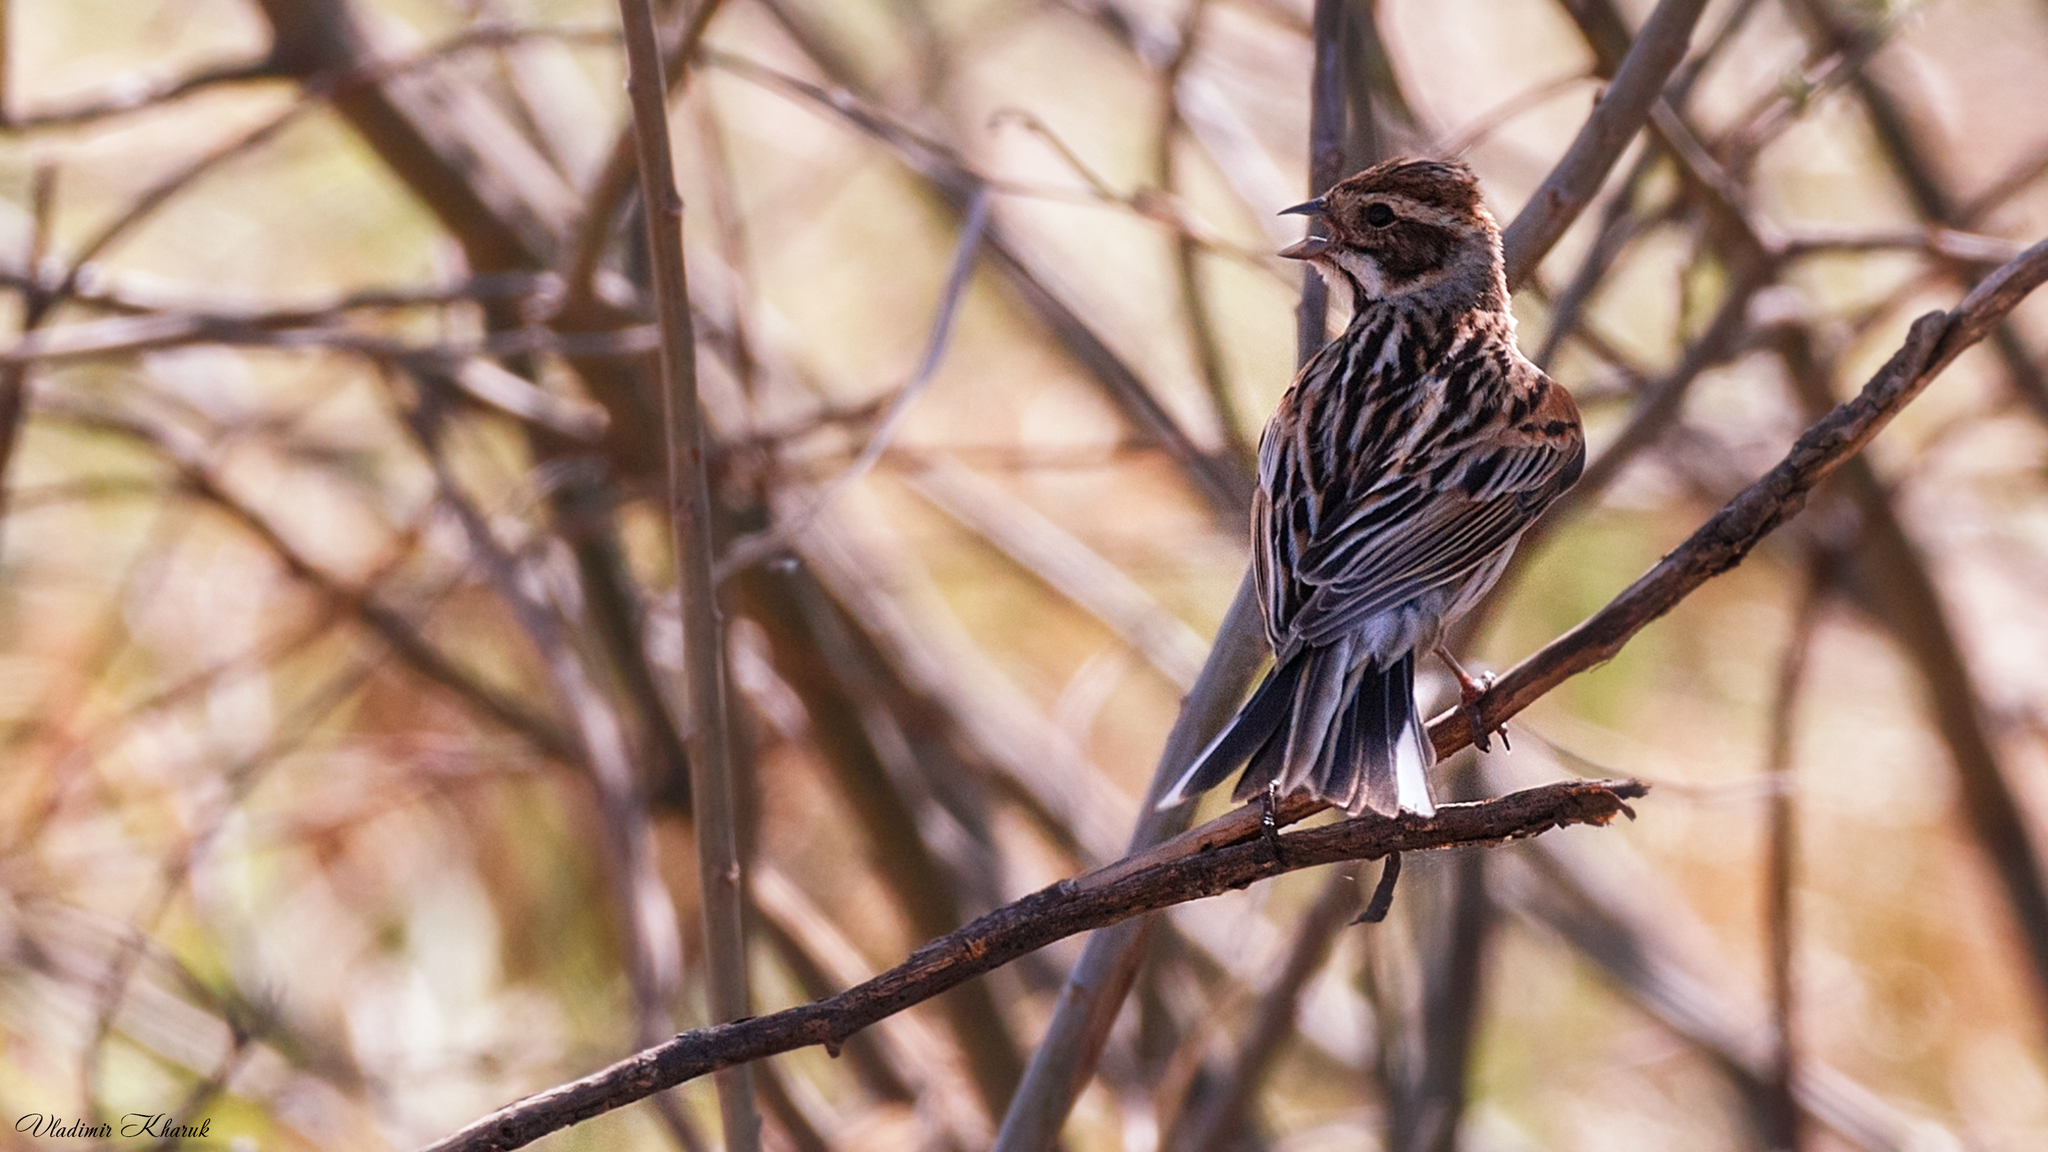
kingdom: Animalia
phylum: Chordata
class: Aves
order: Passeriformes
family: Emberizidae
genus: Emberiza
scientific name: Emberiza schoeniclus
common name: Reed bunting
